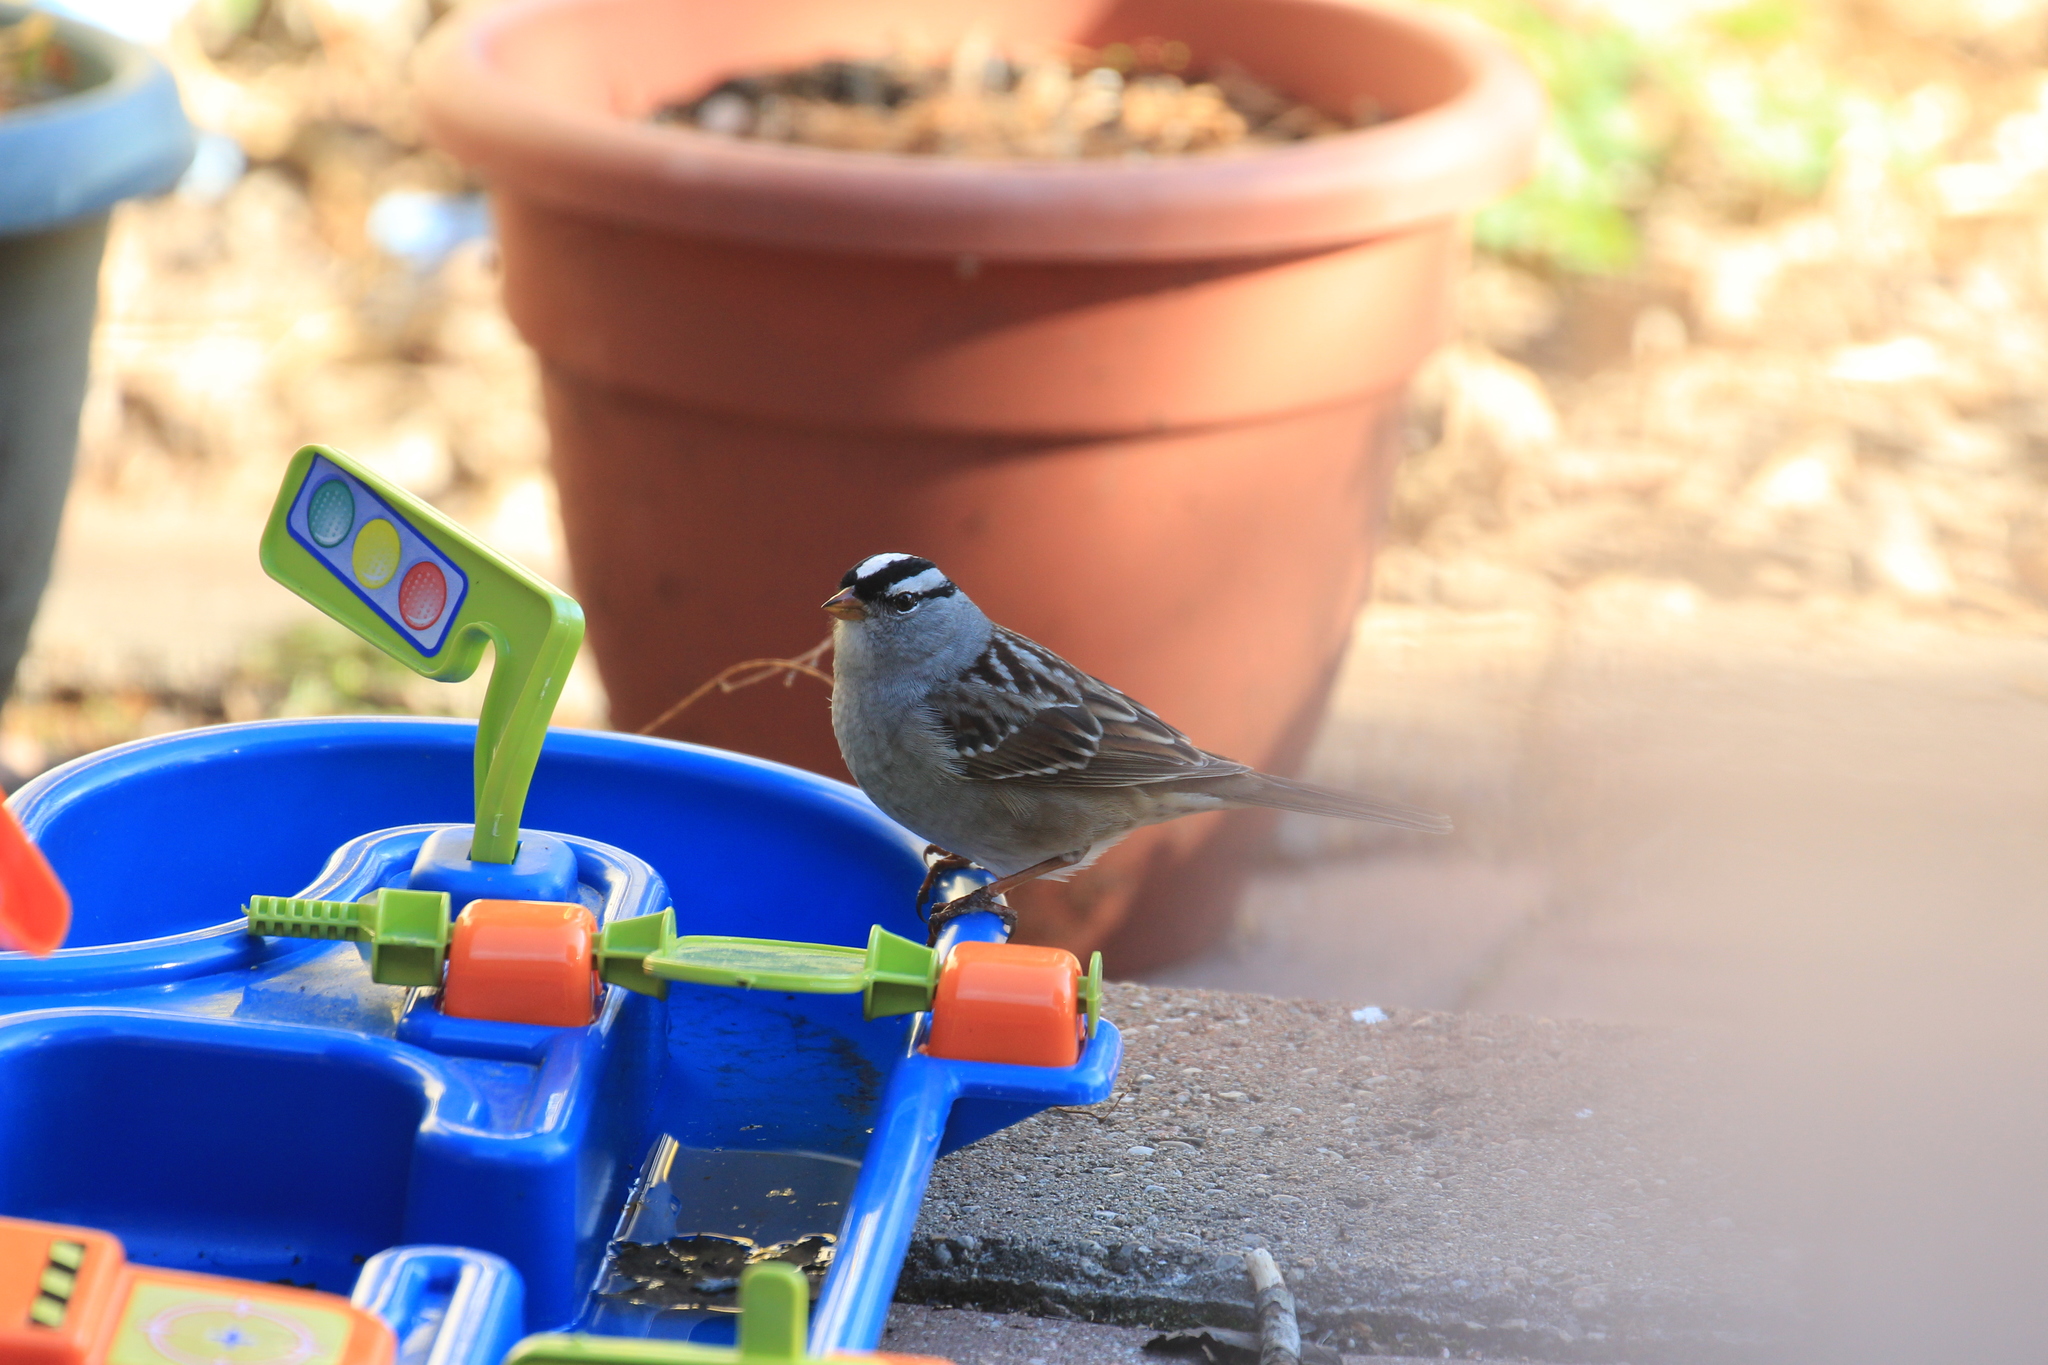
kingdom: Animalia
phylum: Chordata
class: Aves
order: Passeriformes
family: Passerellidae
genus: Zonotrichia
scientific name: Zonotrichia leucophrys
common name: White-crowned sparrow
